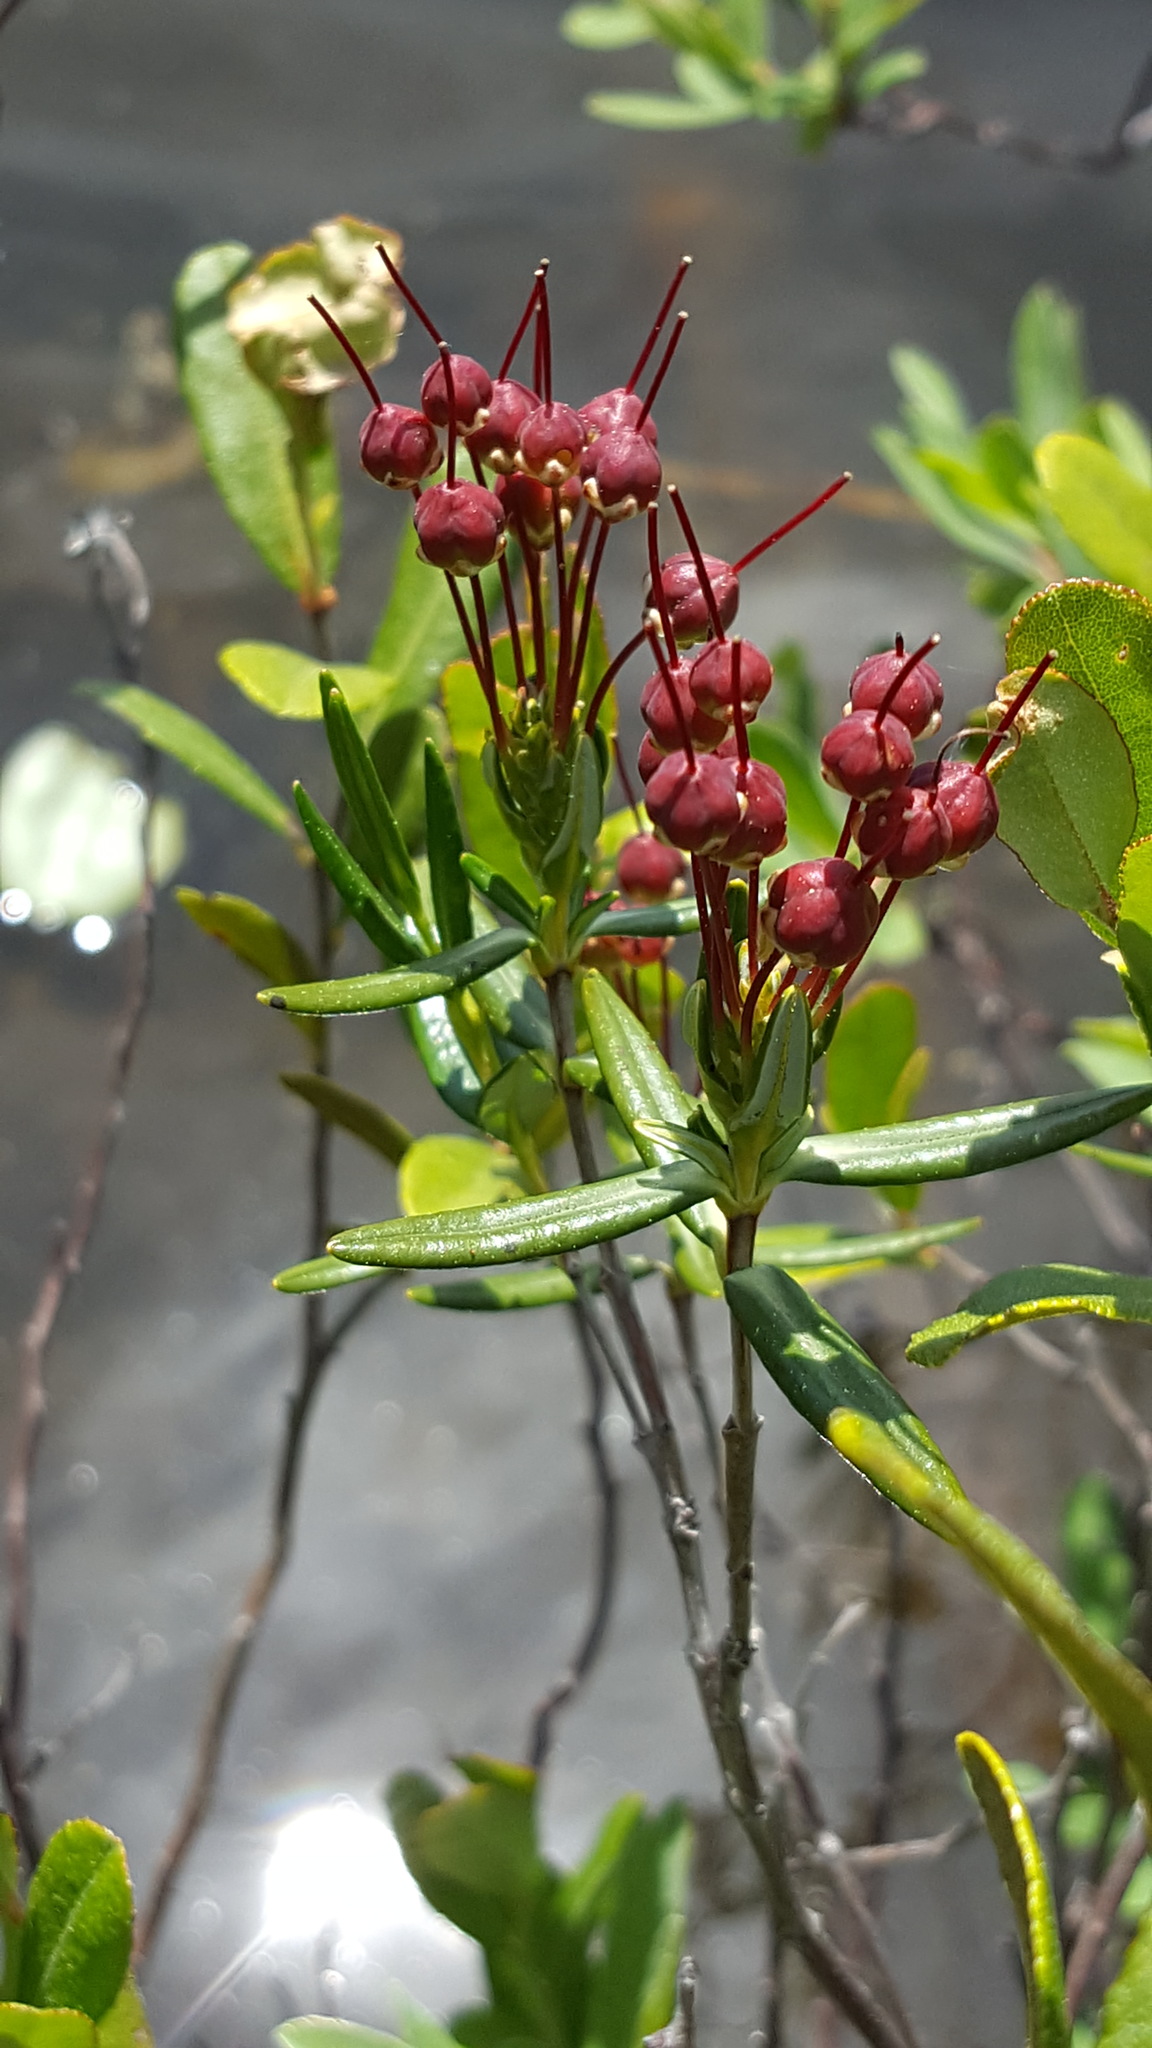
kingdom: Plantae
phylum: Tracheophyta
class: Magnoliopsida
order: Ericales
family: Ericaceae
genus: Kalmia
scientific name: Kalmia polifolia
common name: Bog-laurel
